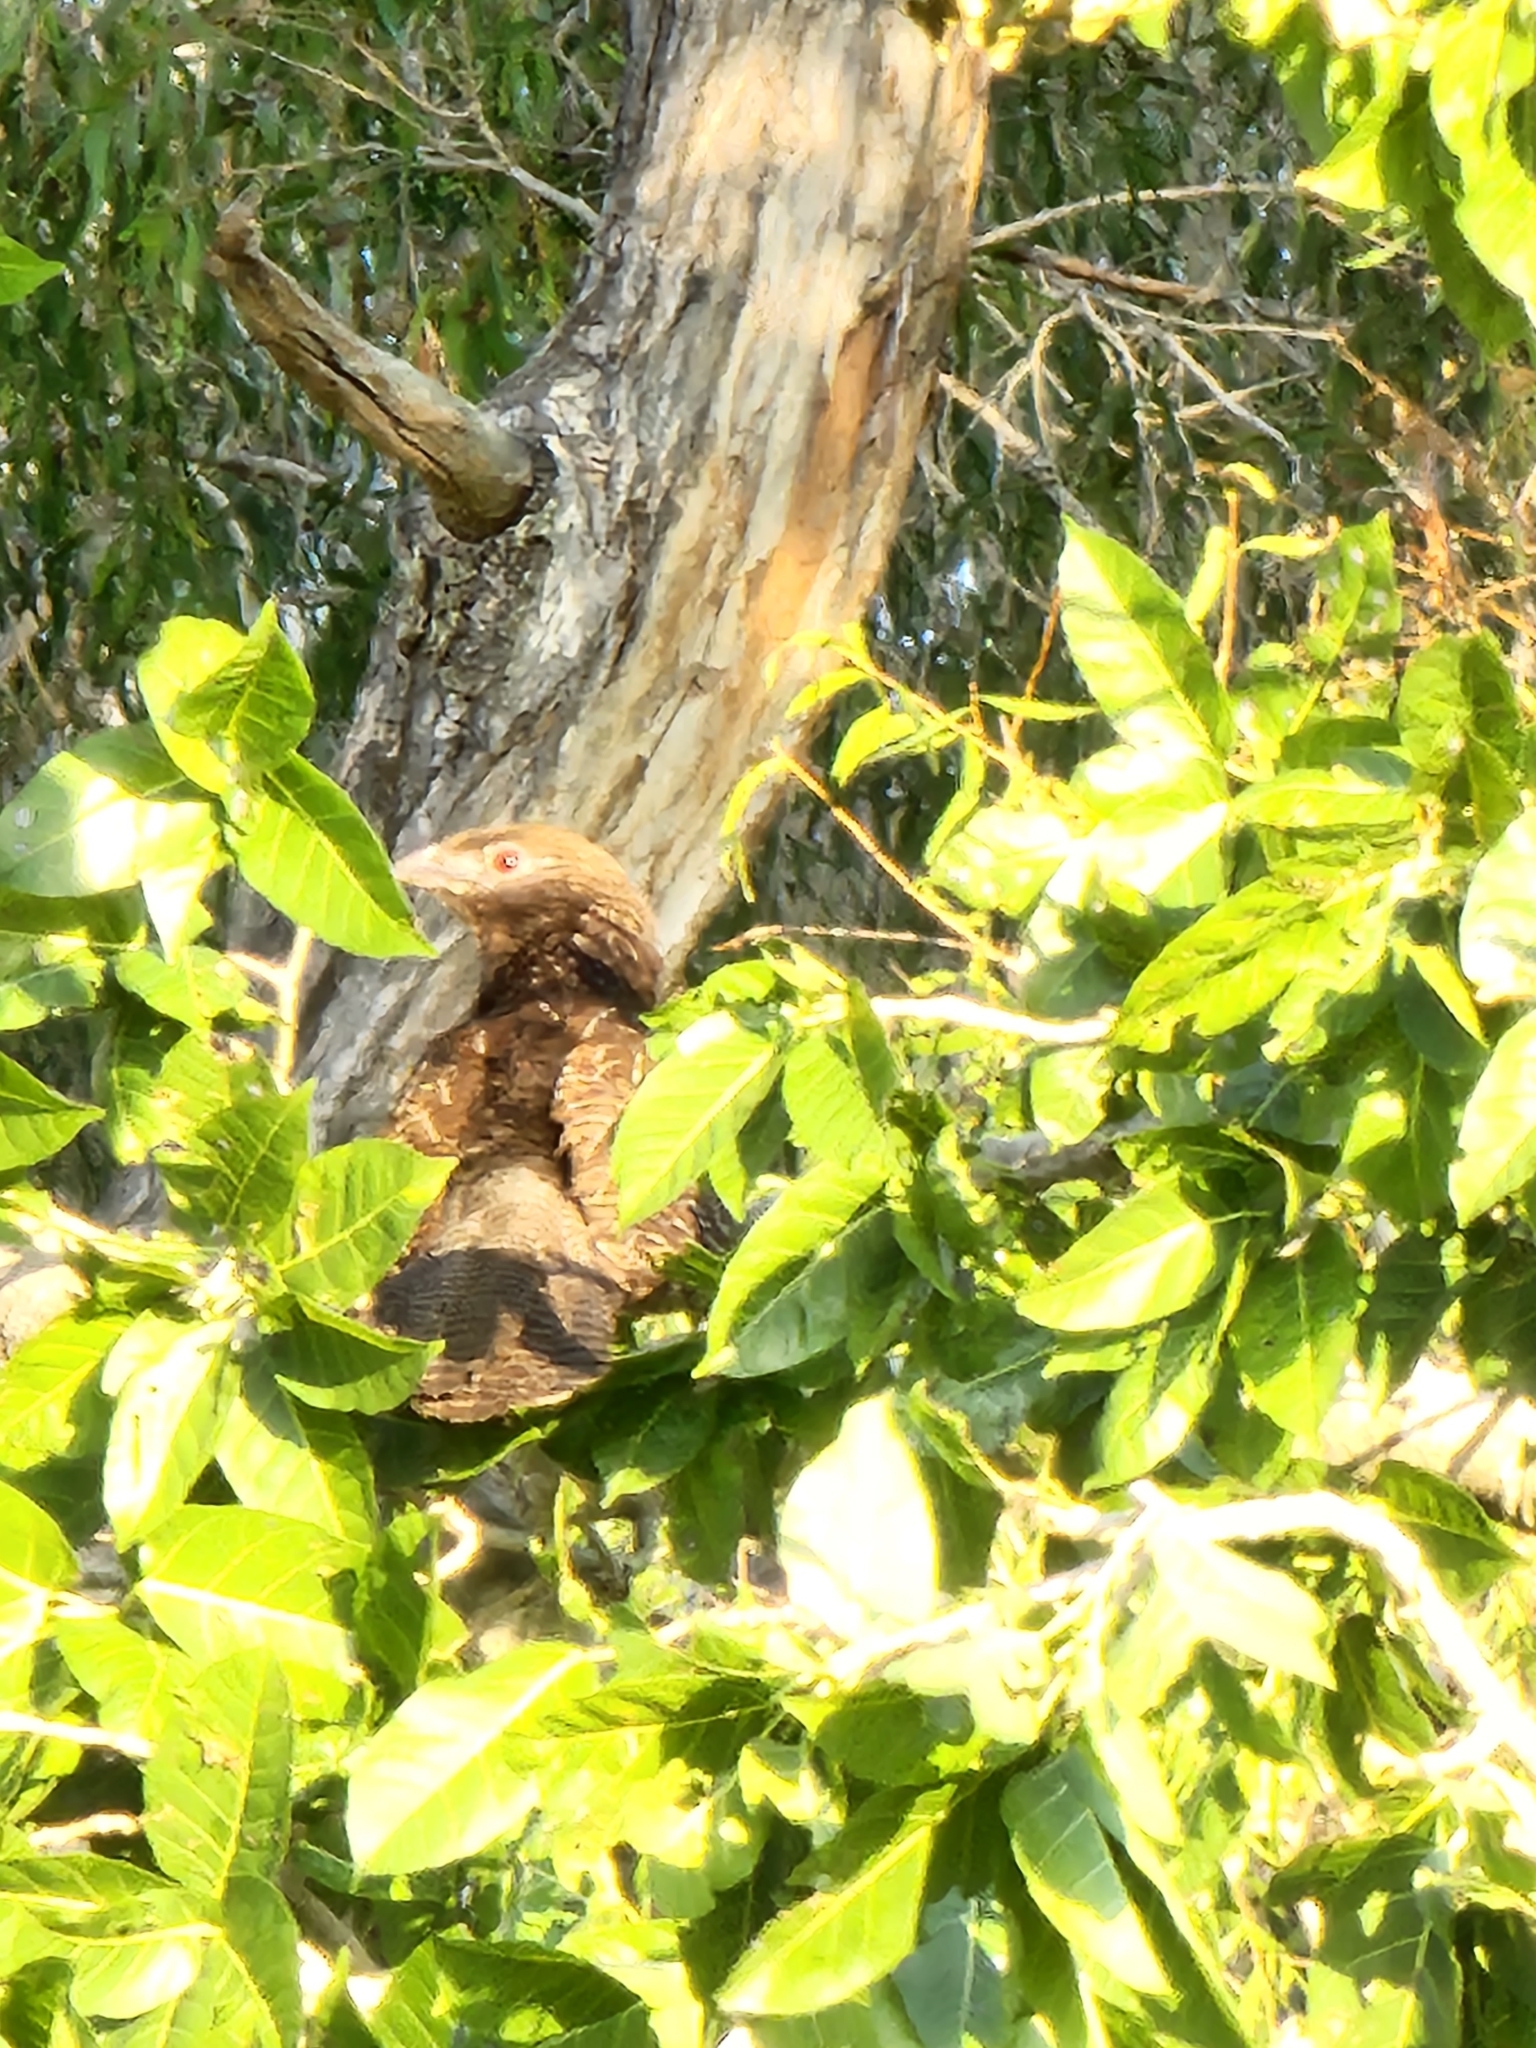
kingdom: Animalia
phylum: Chordata
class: Aves
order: Cuculiformes
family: Cuculidae
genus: Centropus
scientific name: Centropus phasianinus
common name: Pheasant coucal
